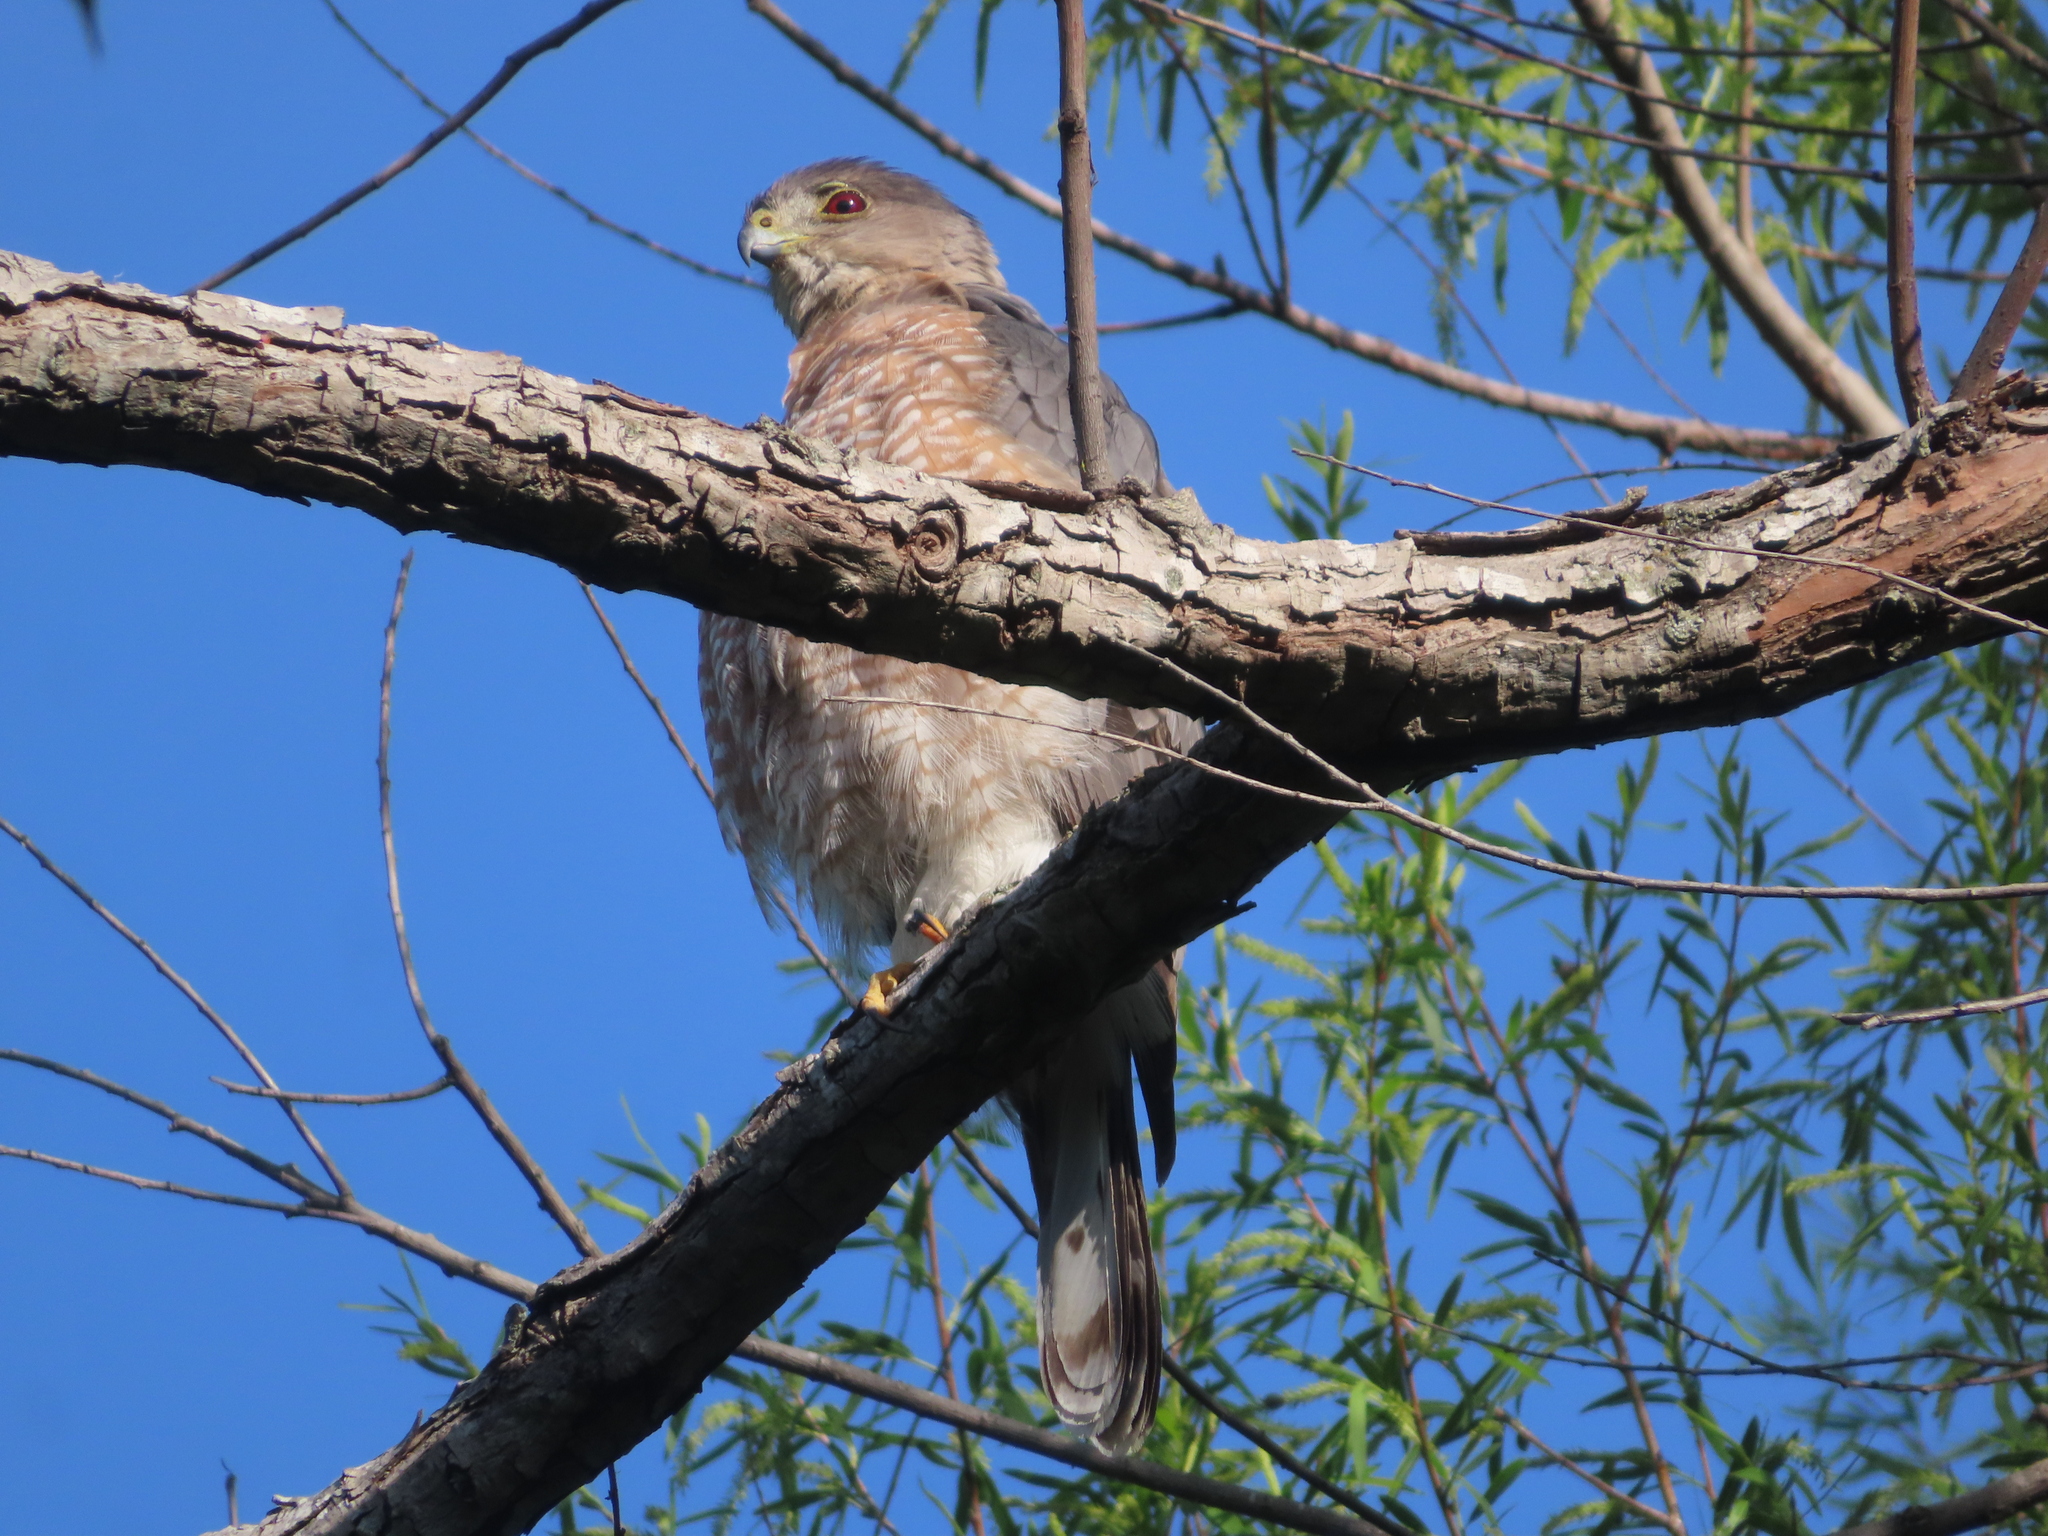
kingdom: Animalia
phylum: Chordata
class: Aves
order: Accipitriformes
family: Accipitridae
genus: Accipiter
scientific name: Accipiter cooperii
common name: Cooper's hawk
